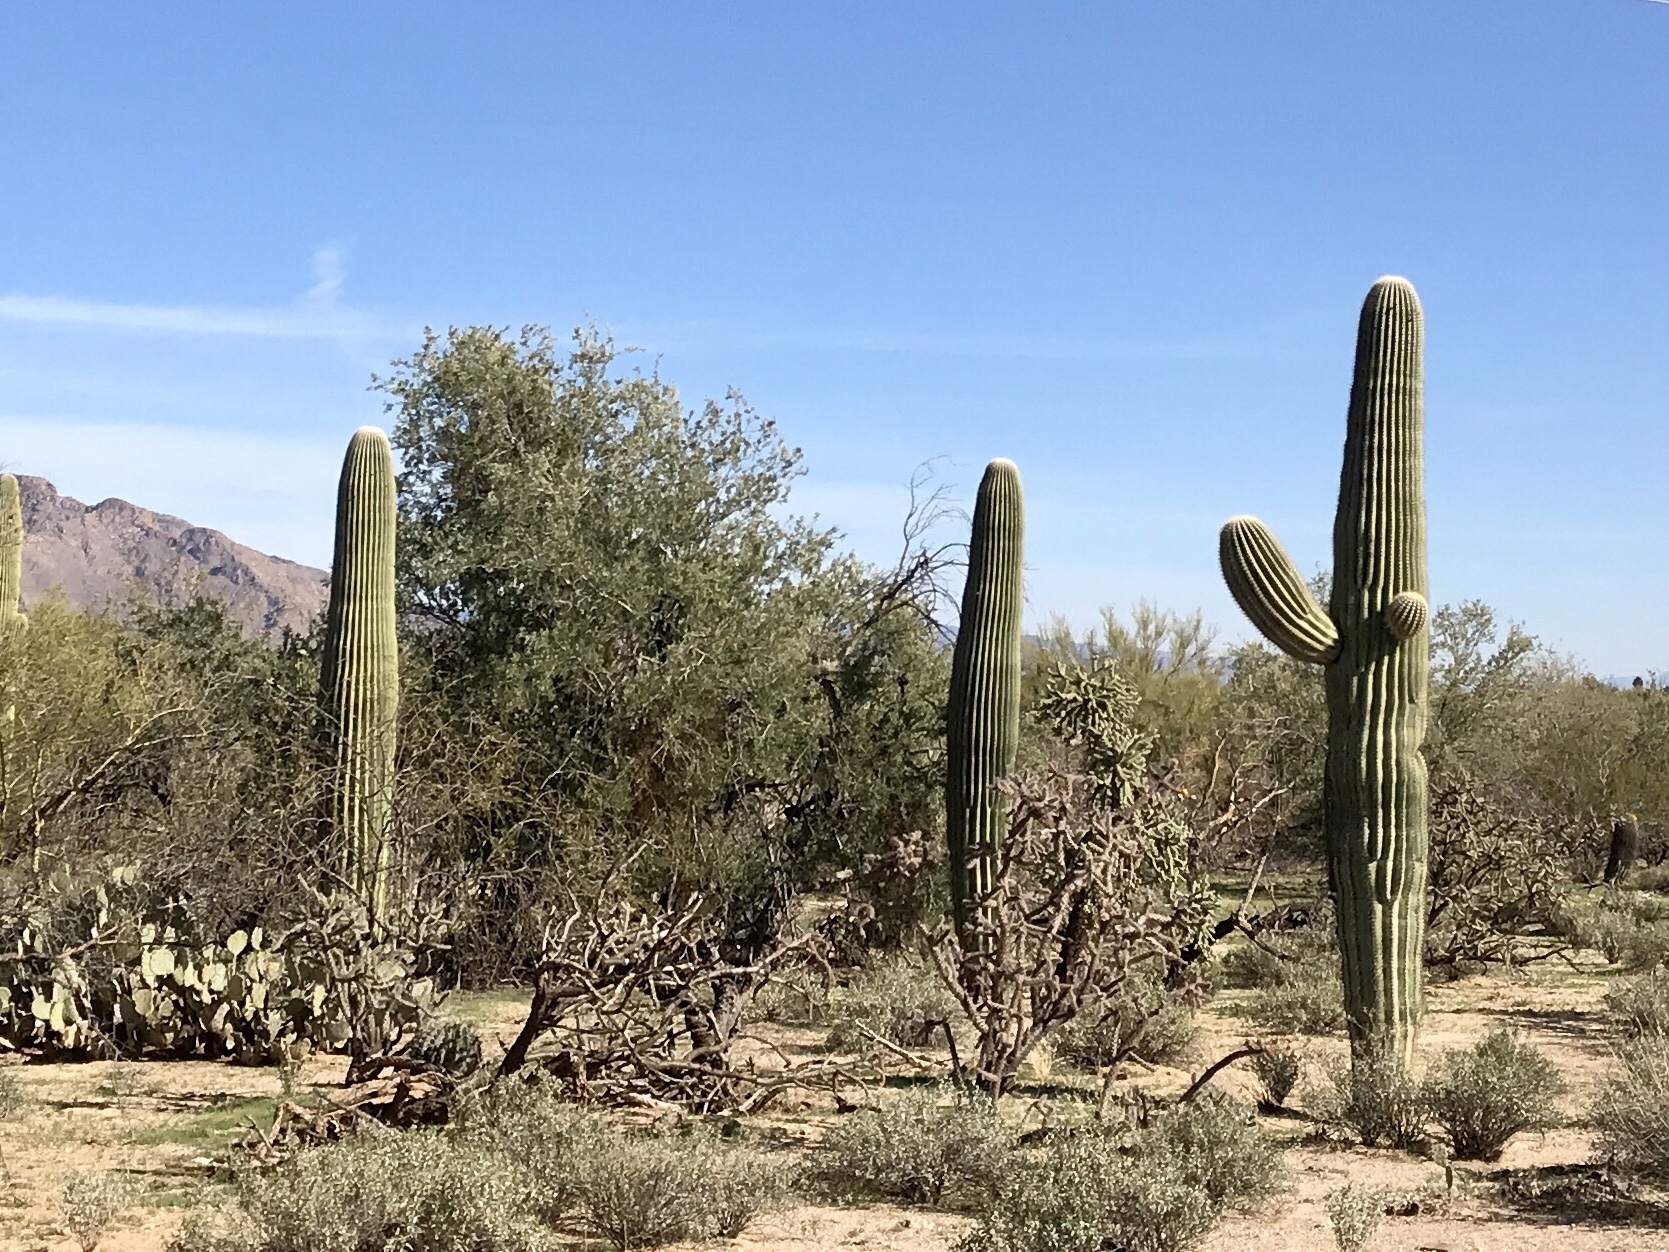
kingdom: Plantae
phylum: Tracheophyta
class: Magnoliopsida
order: Caryophyllales
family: Cactaceae
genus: Carnegiea
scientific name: Carnegiea gigantea
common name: Saguaro
